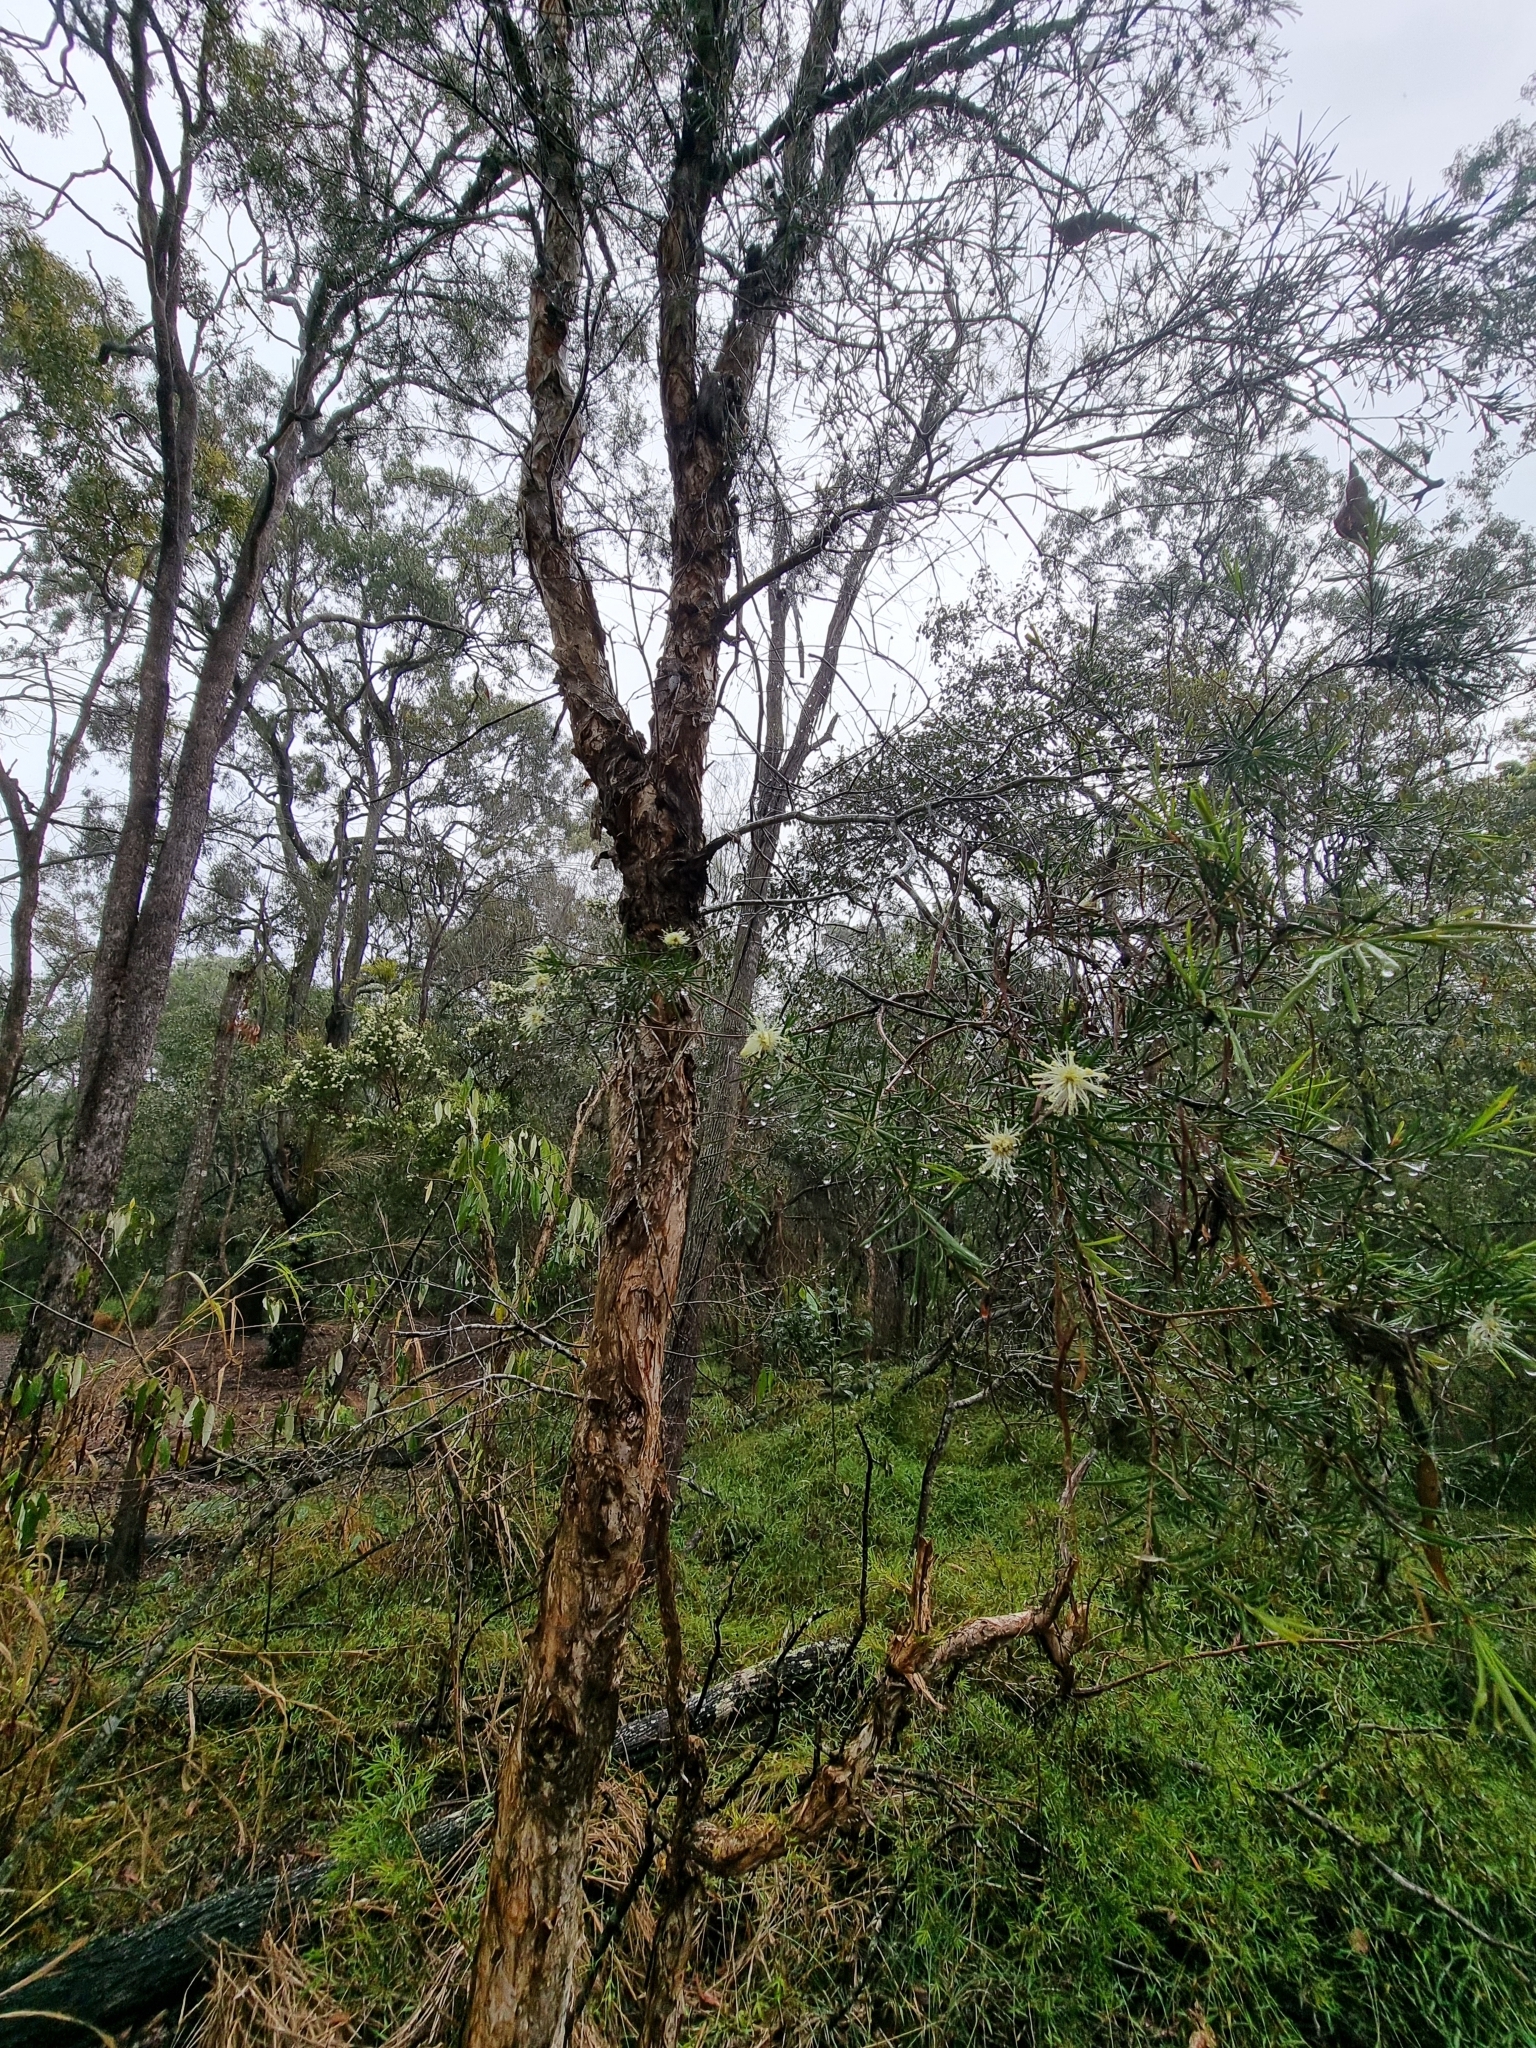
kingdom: Plantae
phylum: Tracheophyta
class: Magnoliopsida
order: Myrtales
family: Myrtaceae
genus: Melaleuca
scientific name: Melaleuca nodosa
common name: Prickly-leaf paperbark
